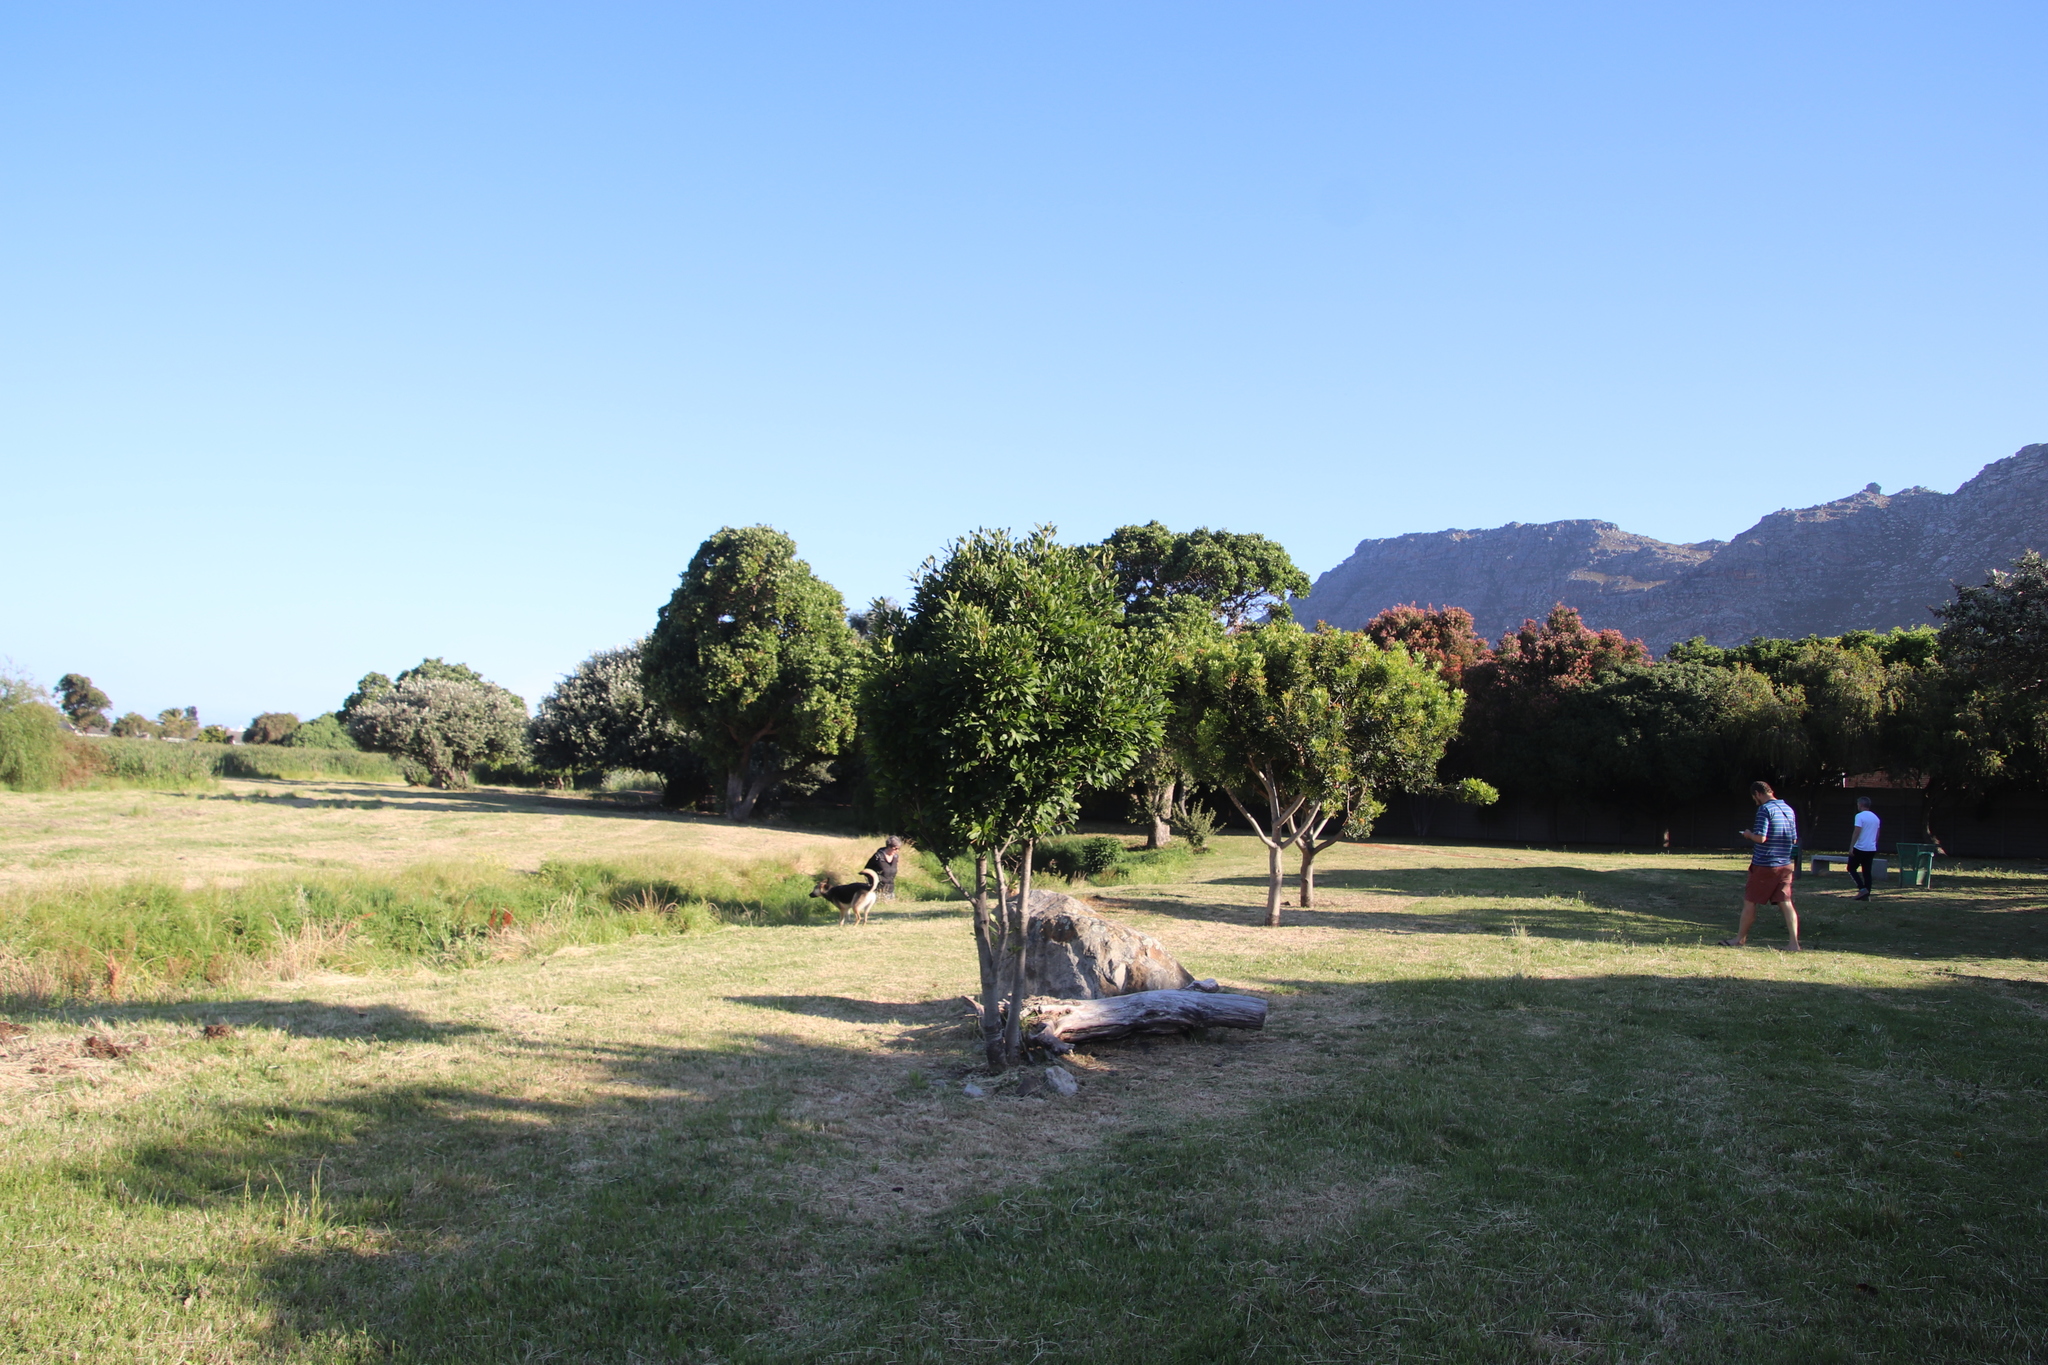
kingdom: Plantae
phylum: Tracheophyta
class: Magnoliopsida
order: Ericales
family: Primulaceae
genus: Myrsine
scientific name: Myrsine melanophloeos
